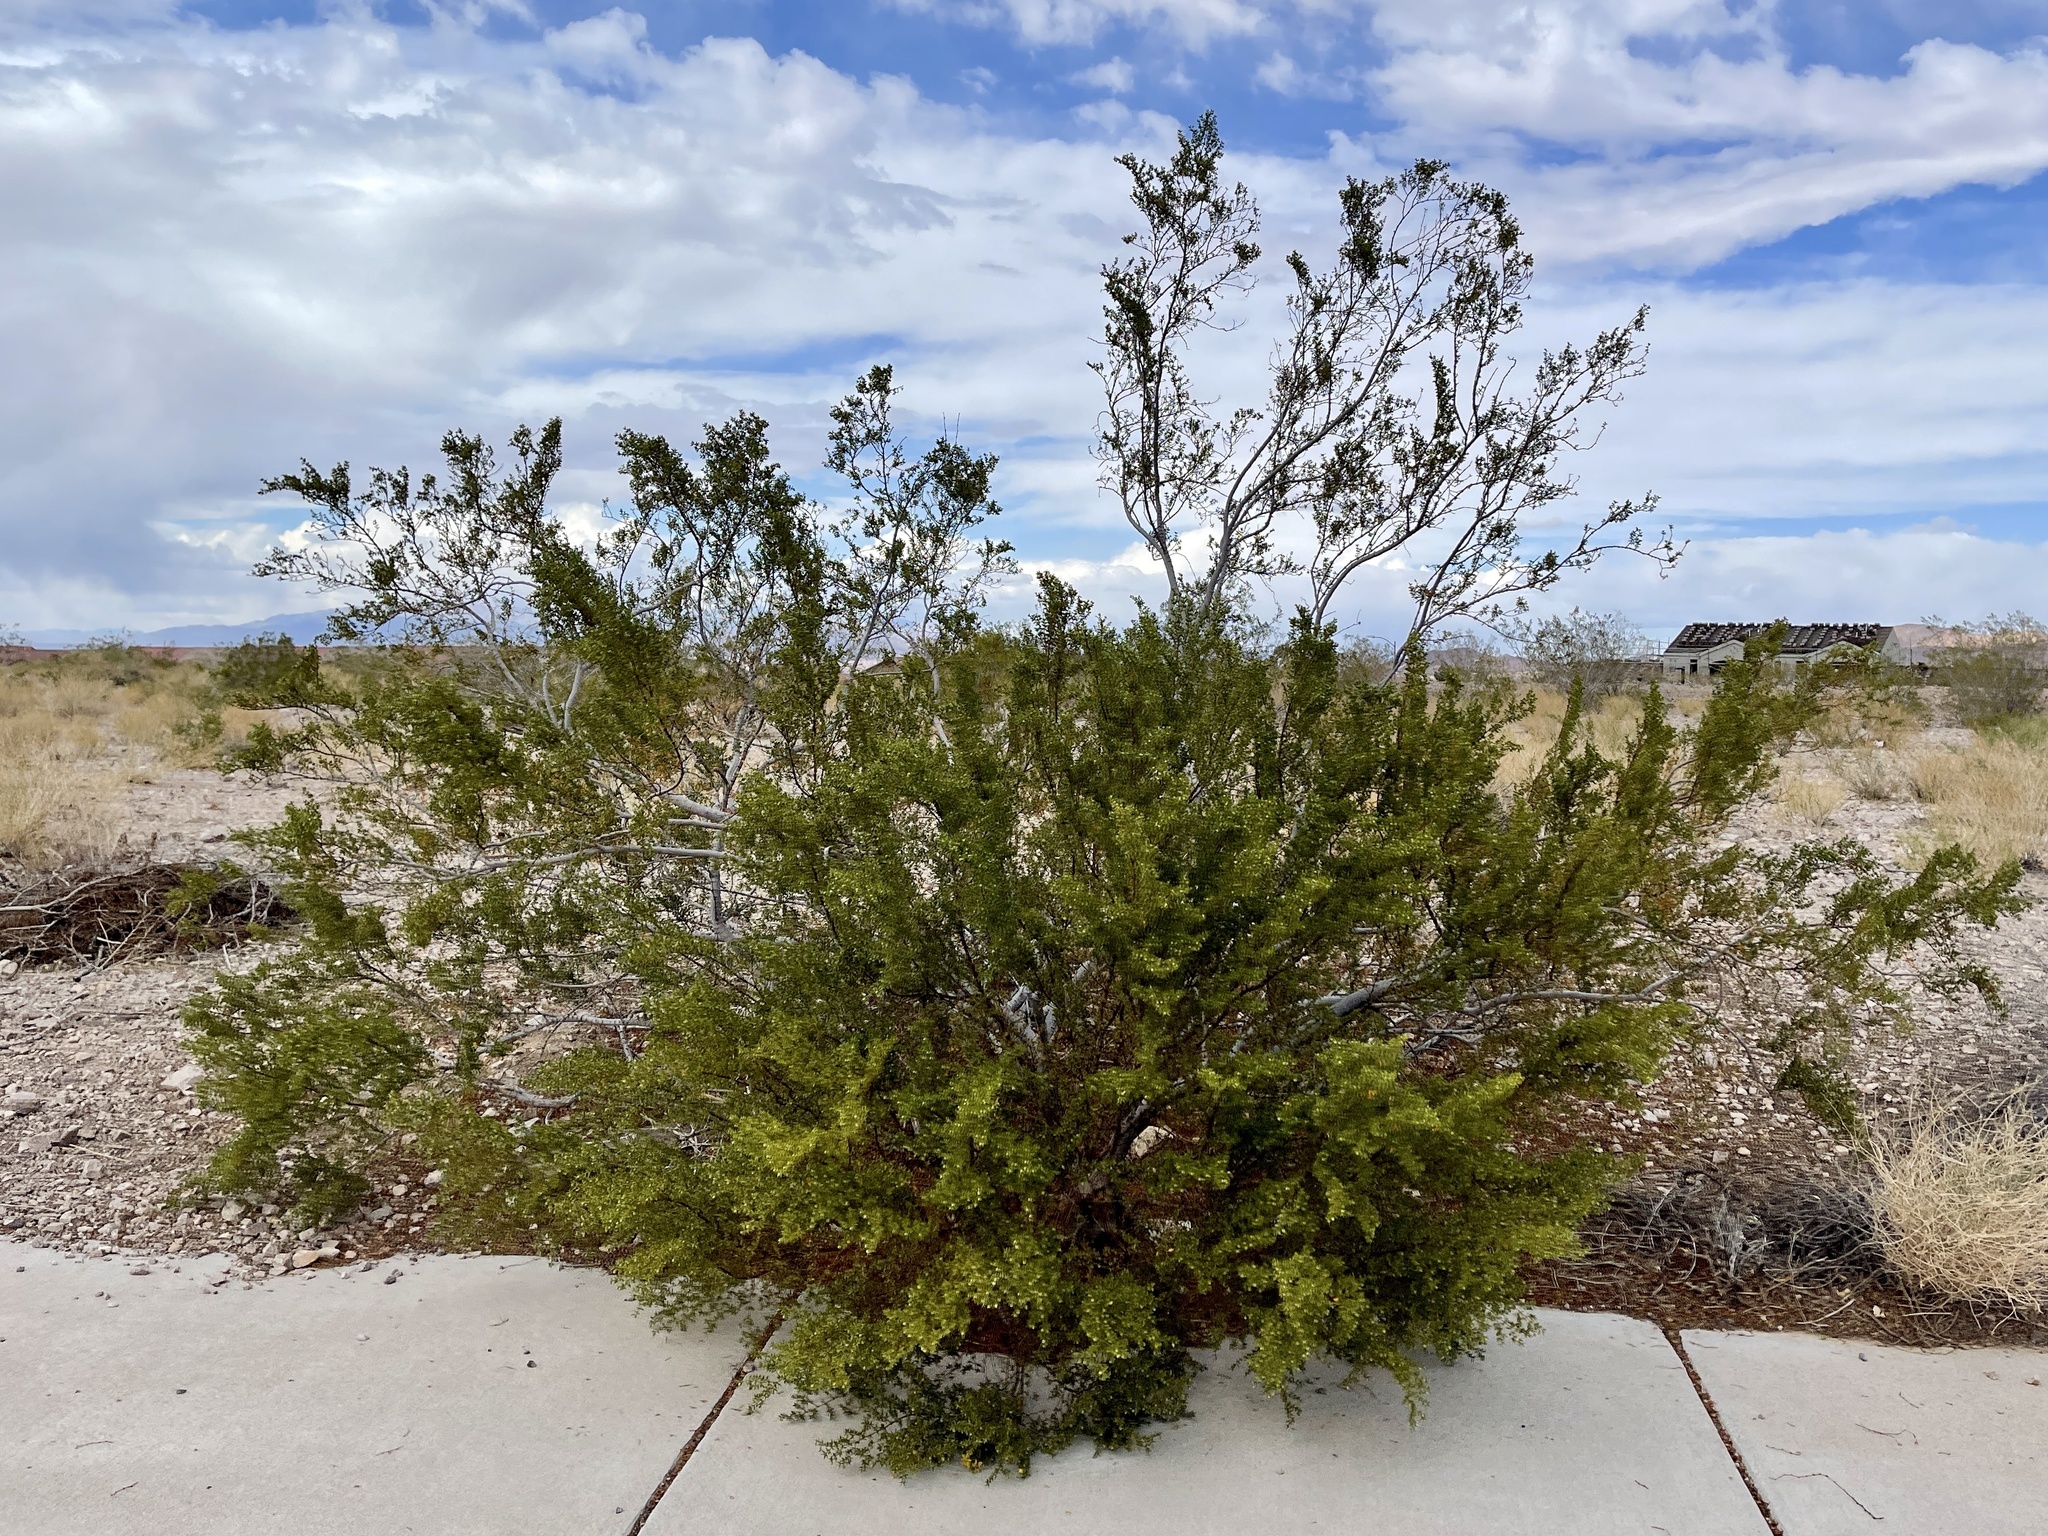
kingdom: Plantae
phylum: Tracheophyta
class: Magnoliopsida
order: Zygophyllales
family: Zygophyllaceae
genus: Larrea
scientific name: Larrea tridentata
